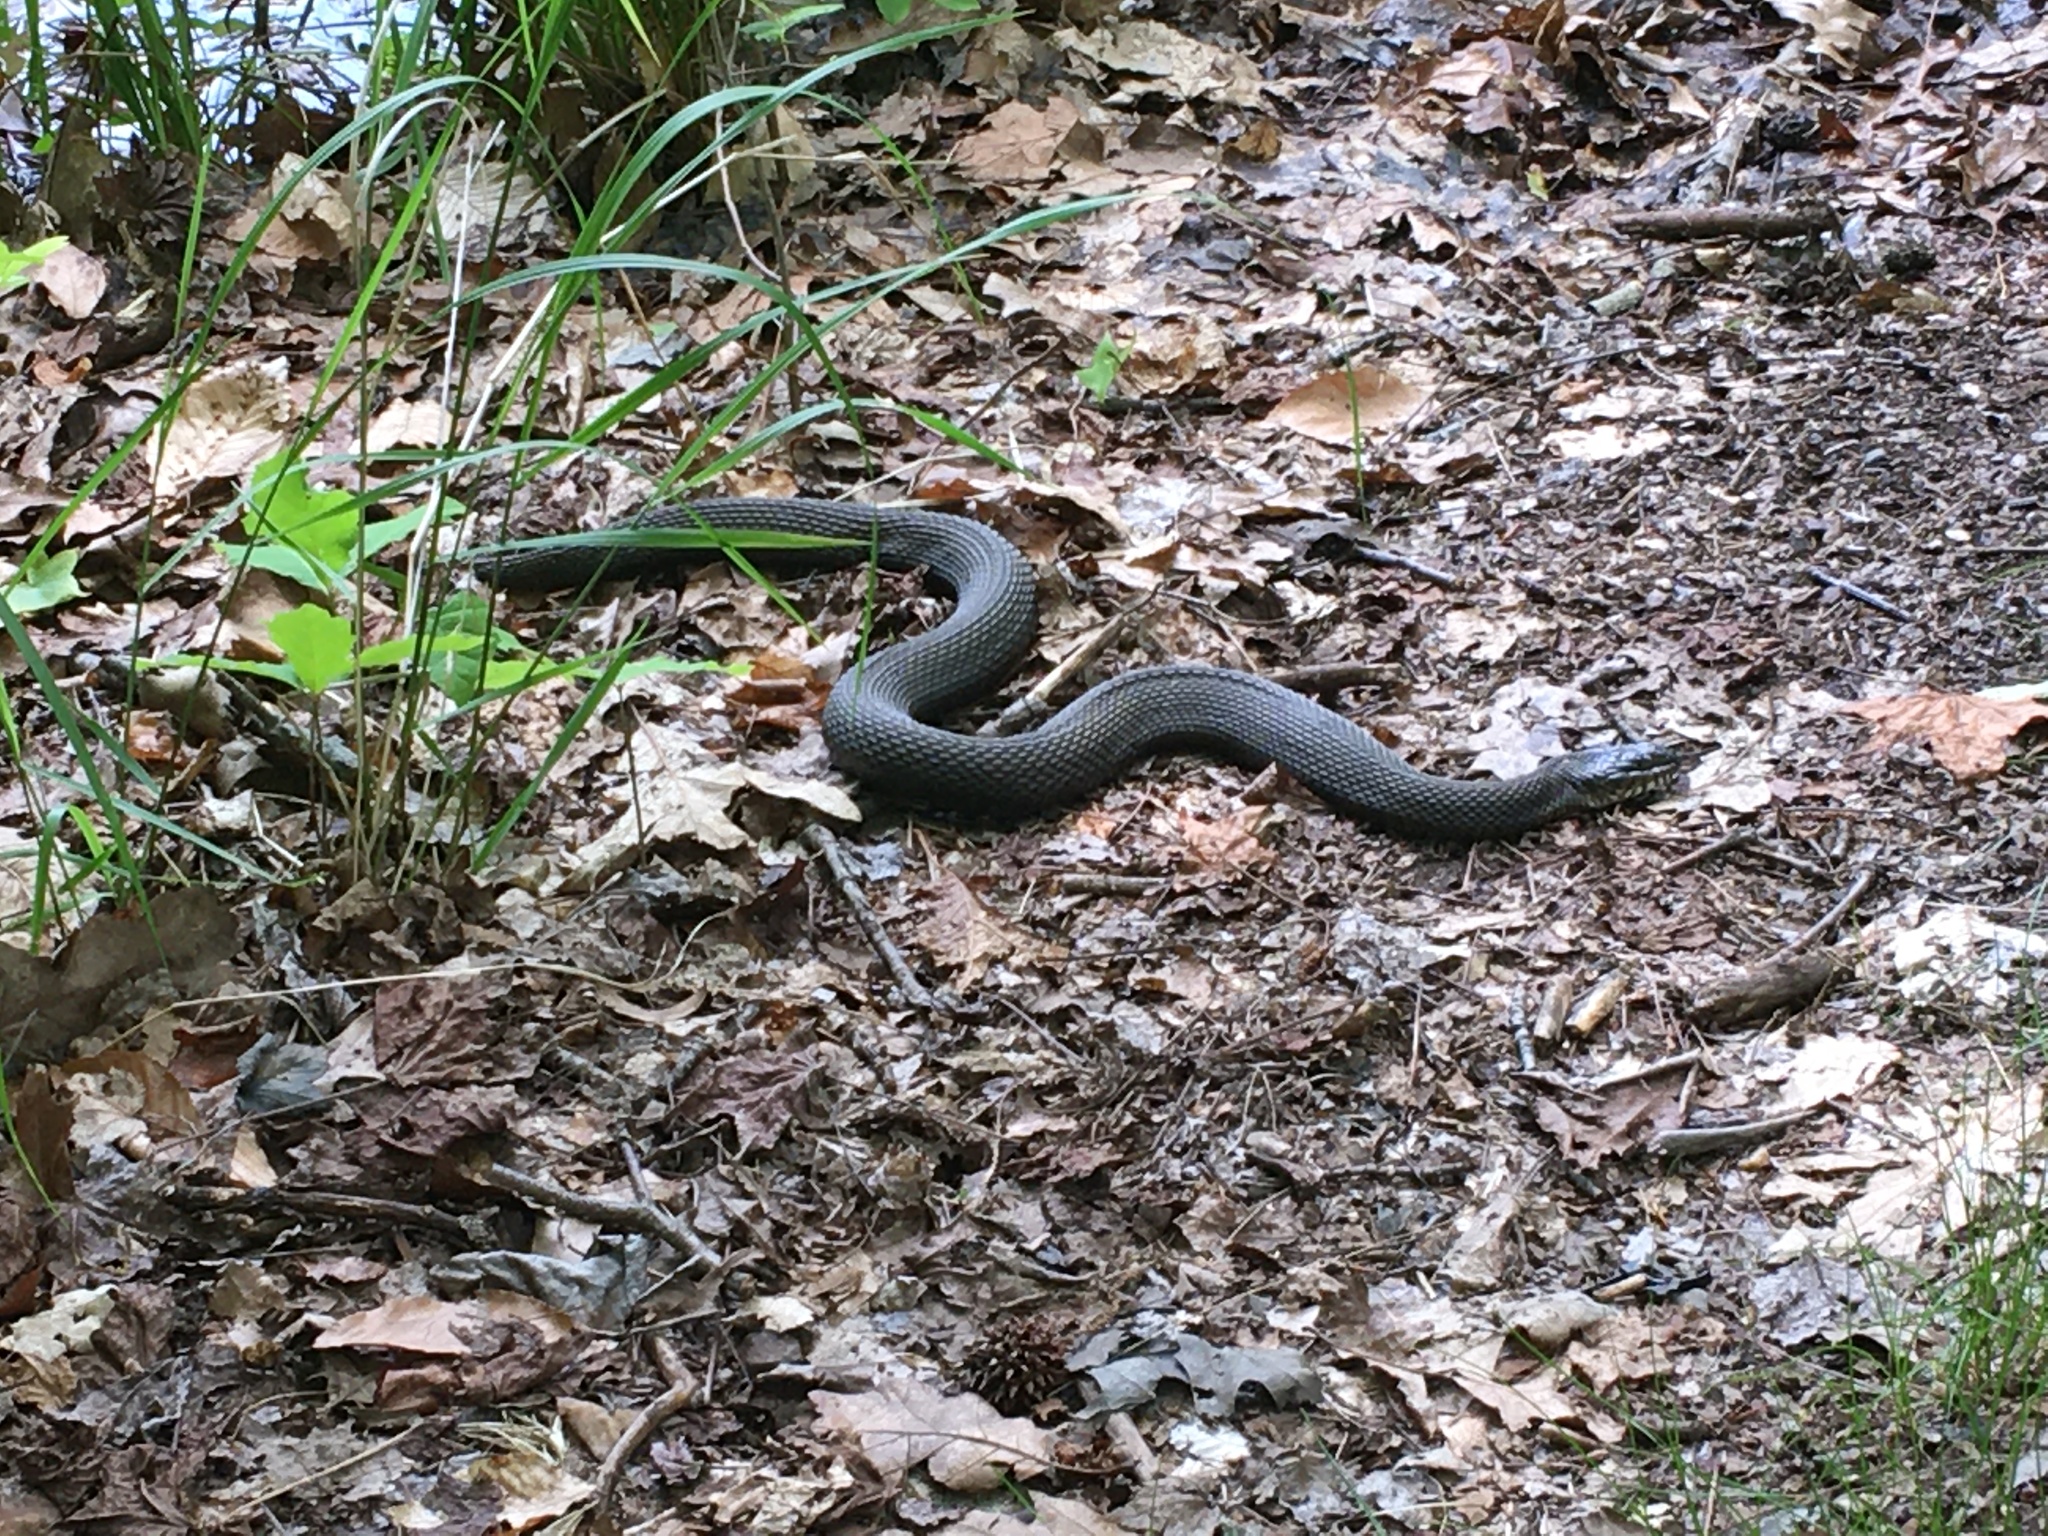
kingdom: Animalia
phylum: Chordata
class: Squamata
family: Colubridae
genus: Nerodia
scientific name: Nerodia sipedon
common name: Northern water snake
